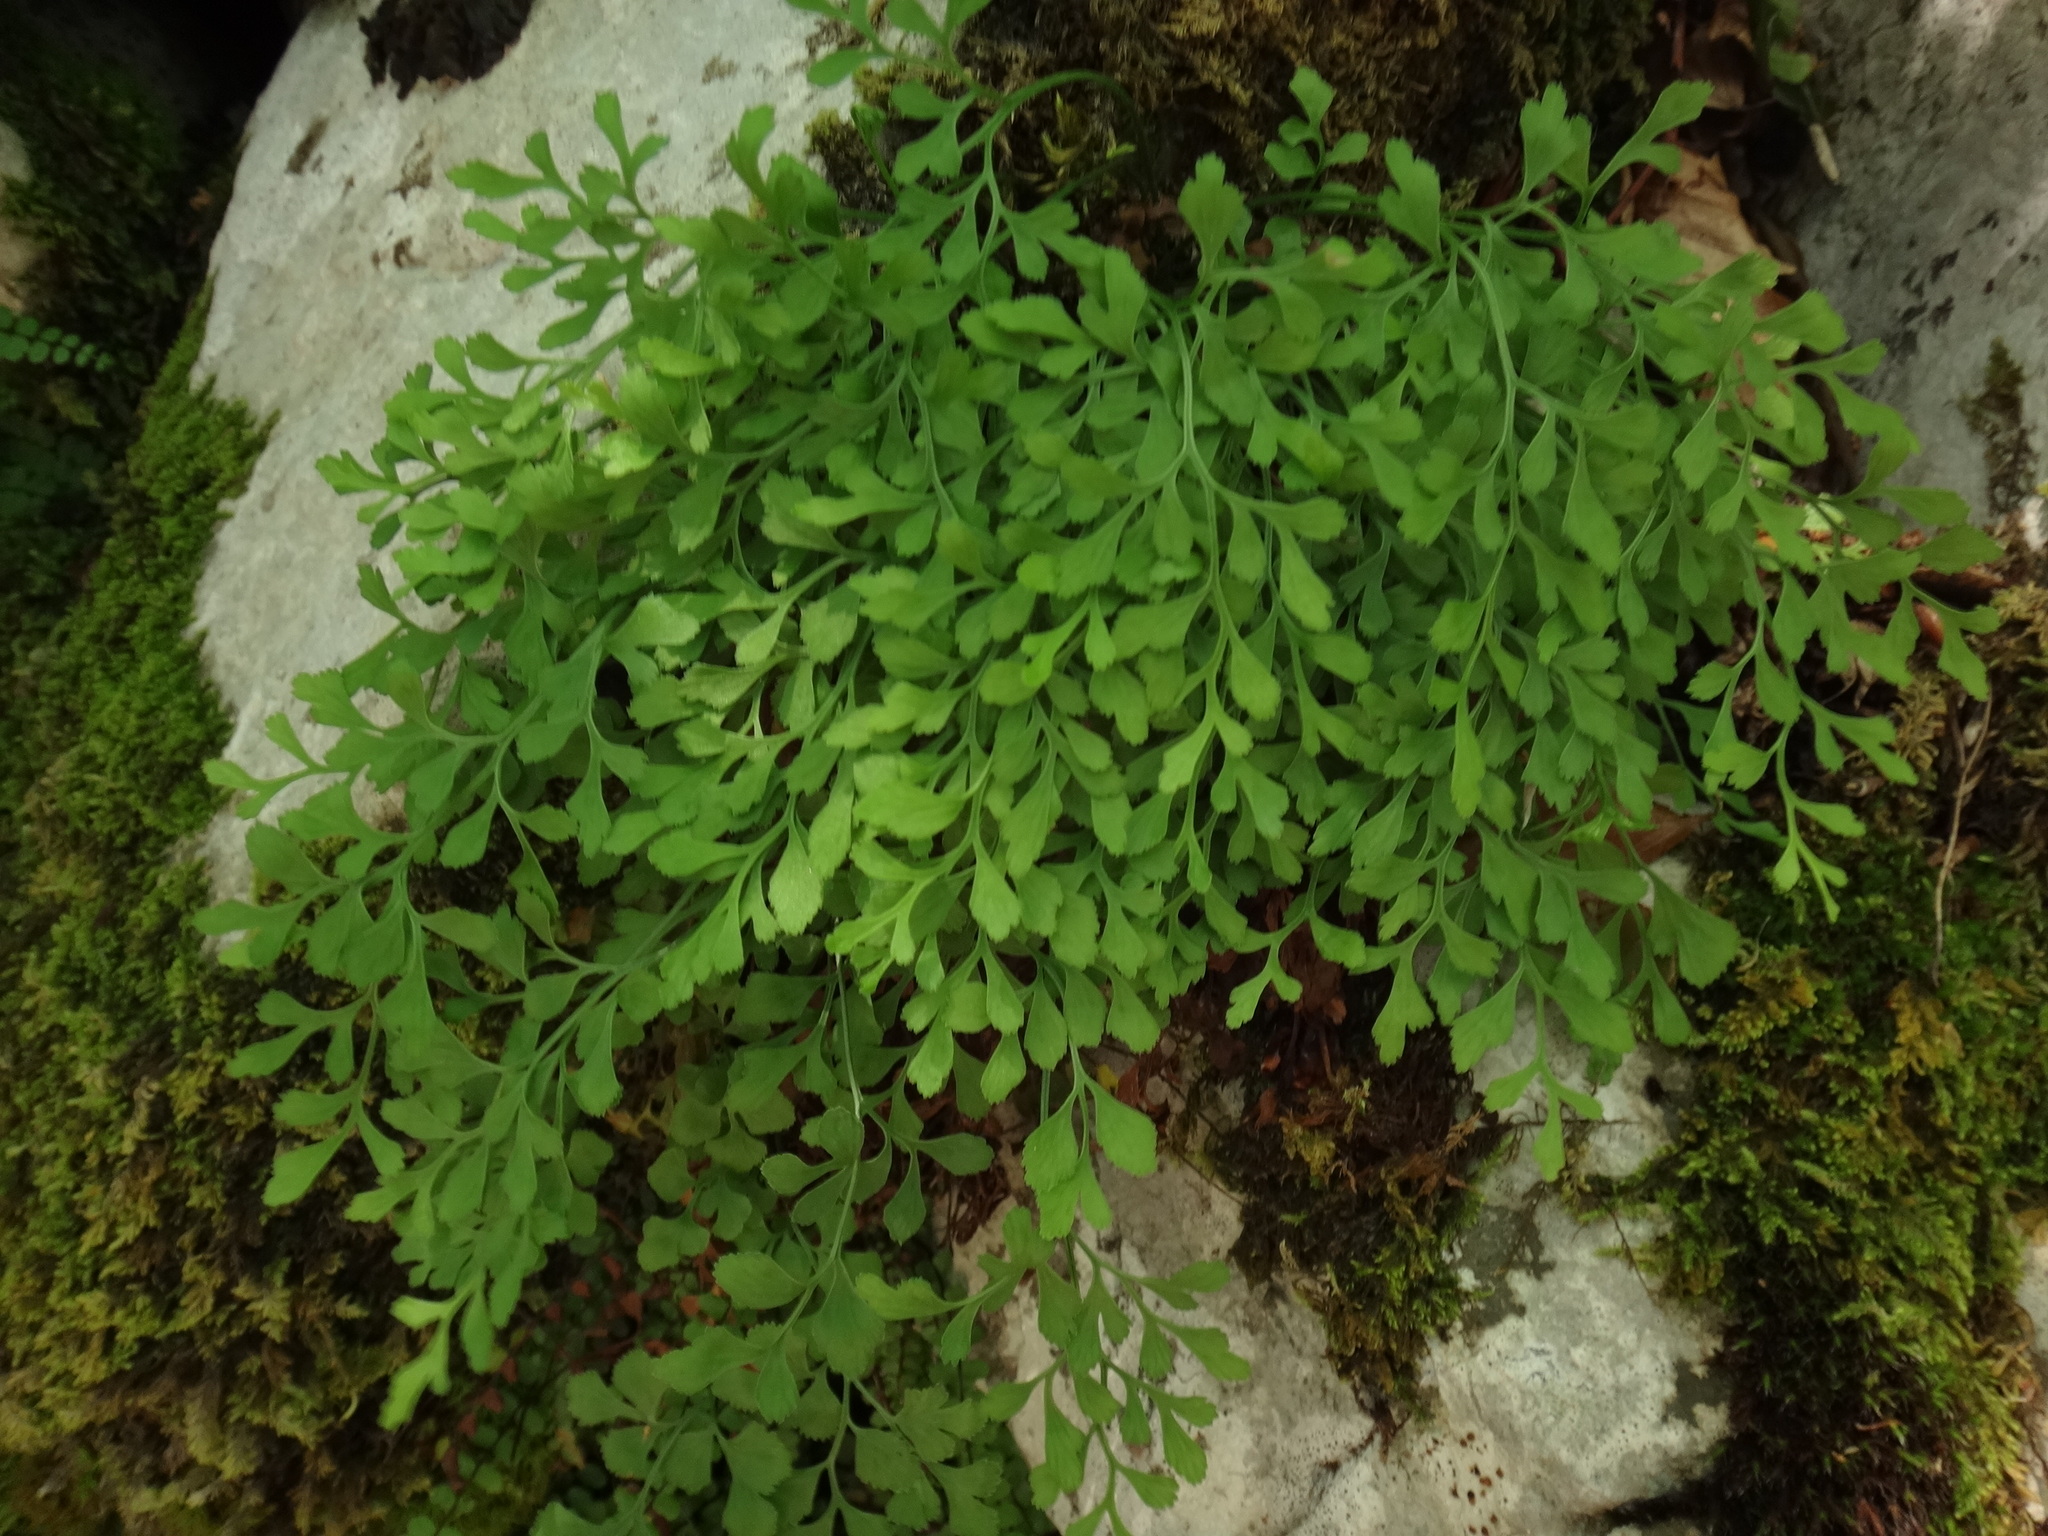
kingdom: Plantae
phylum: Tracheophyta
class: Polypodiopsida
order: Polypodiales
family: Aspleniaceae
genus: Asplenium
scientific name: Asplenium ruta-muraria
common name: Wall-rue
